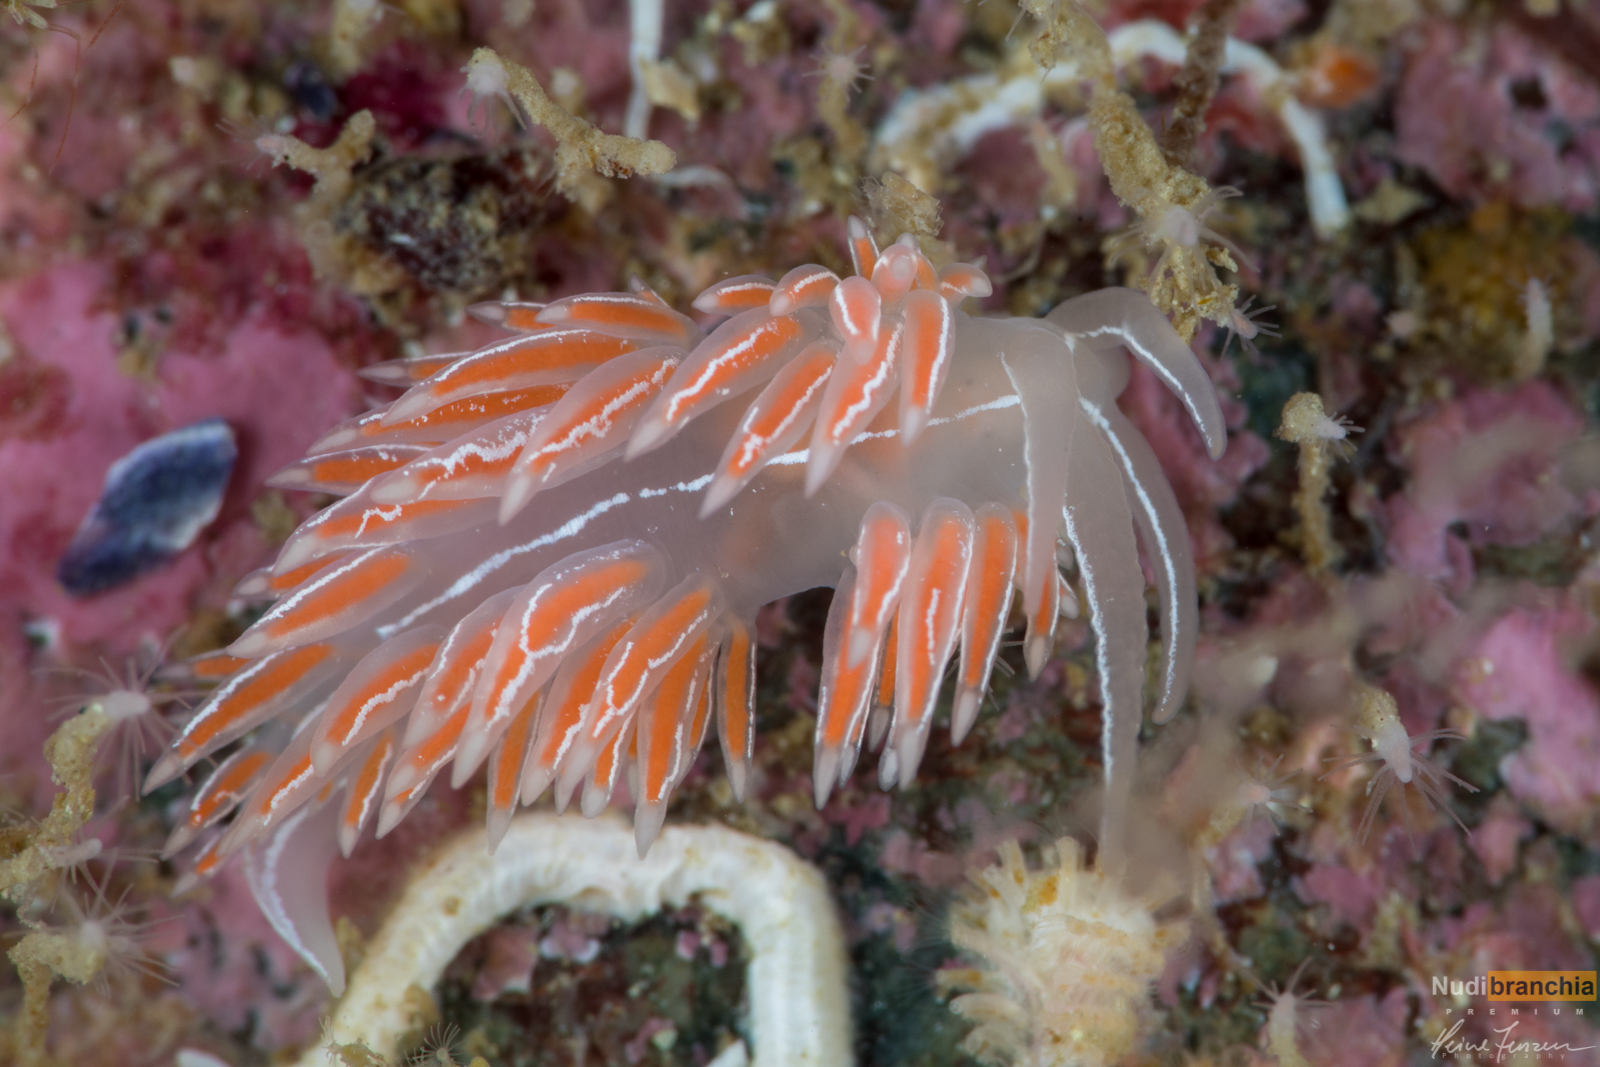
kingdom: Animalia
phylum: Mollusca
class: Gastropoda
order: Nudibranchia
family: Coryphellidae
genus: Coryphella
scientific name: Coryphella chriskaugei
